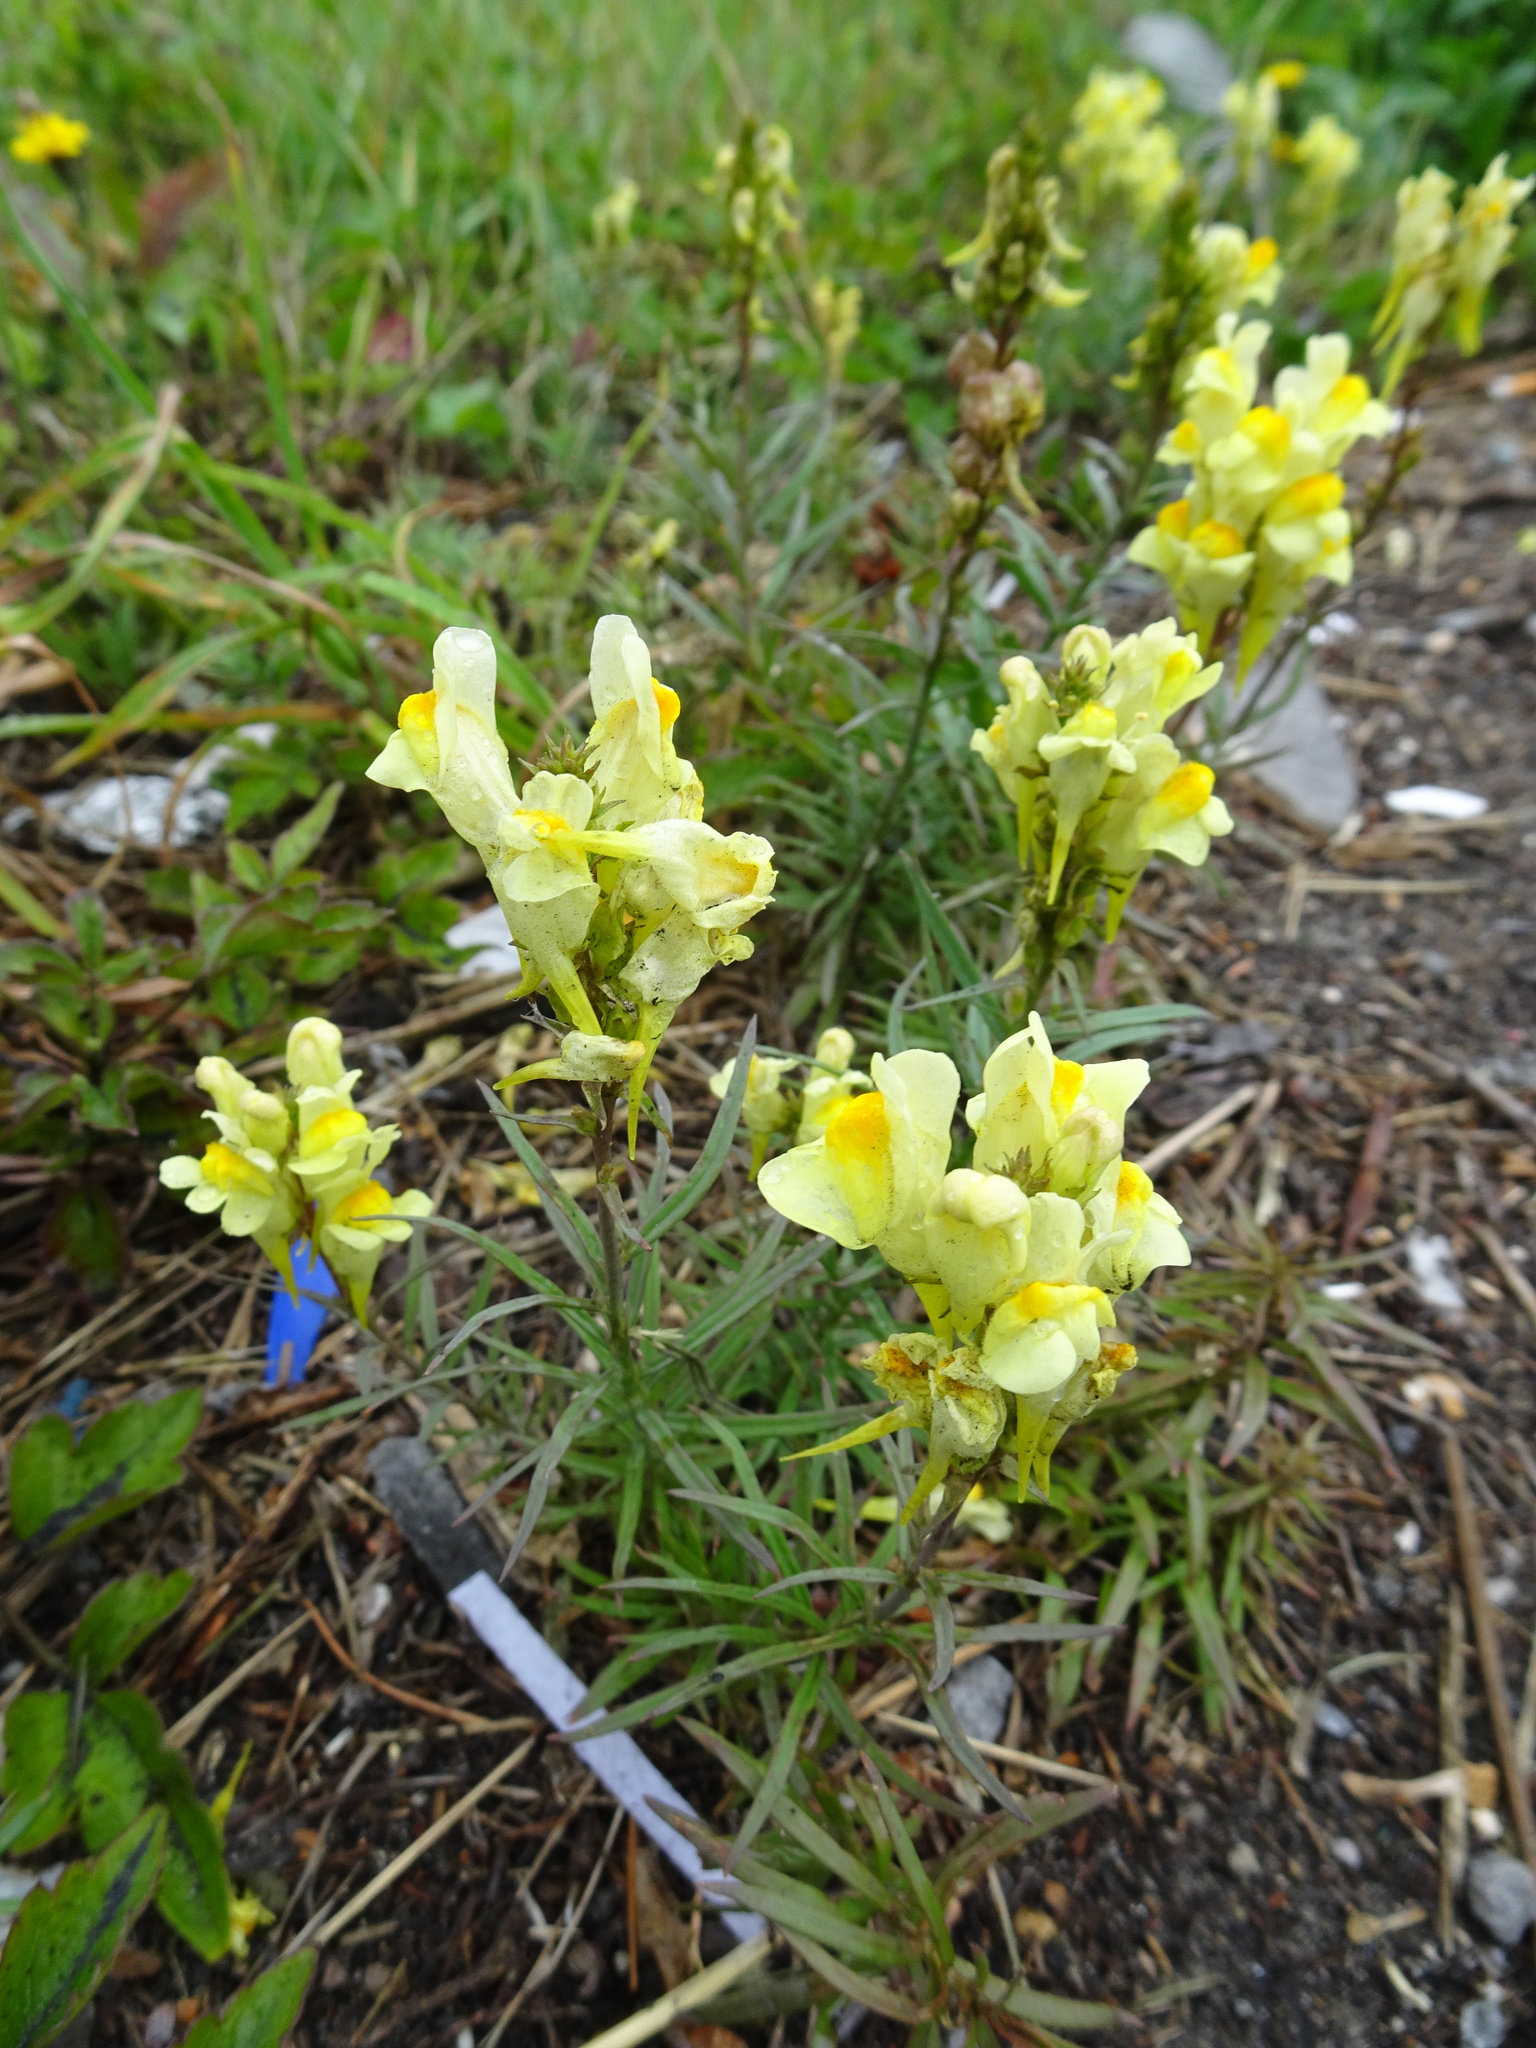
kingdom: Plantae
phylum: Tracheophyta
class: Magnoliopsida
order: Lamiales
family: Plantaginaceae
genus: Linaria
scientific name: Linaria vulgaris
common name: Butter and eggs
